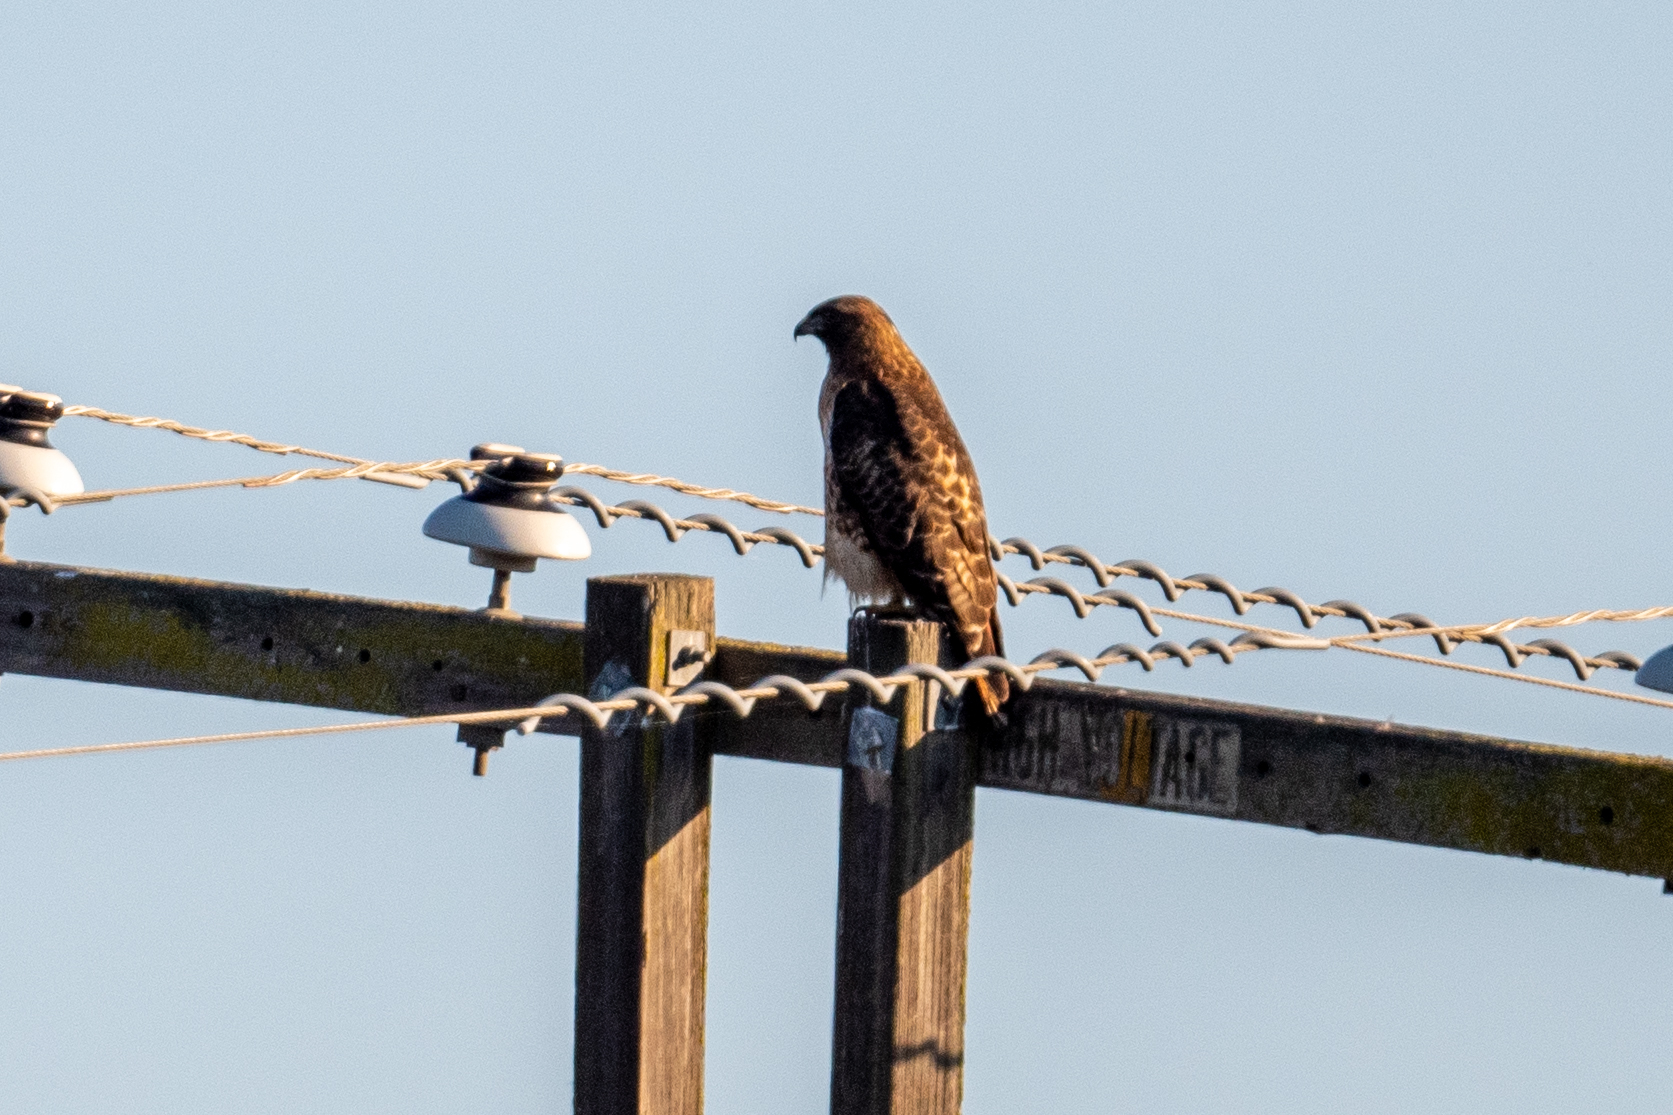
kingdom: Animalia
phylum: Chordata
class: Aves
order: Accipitriformes
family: Accipitridae
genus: Buteo
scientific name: Buteo jamaicensis
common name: Red-tailed hawk
